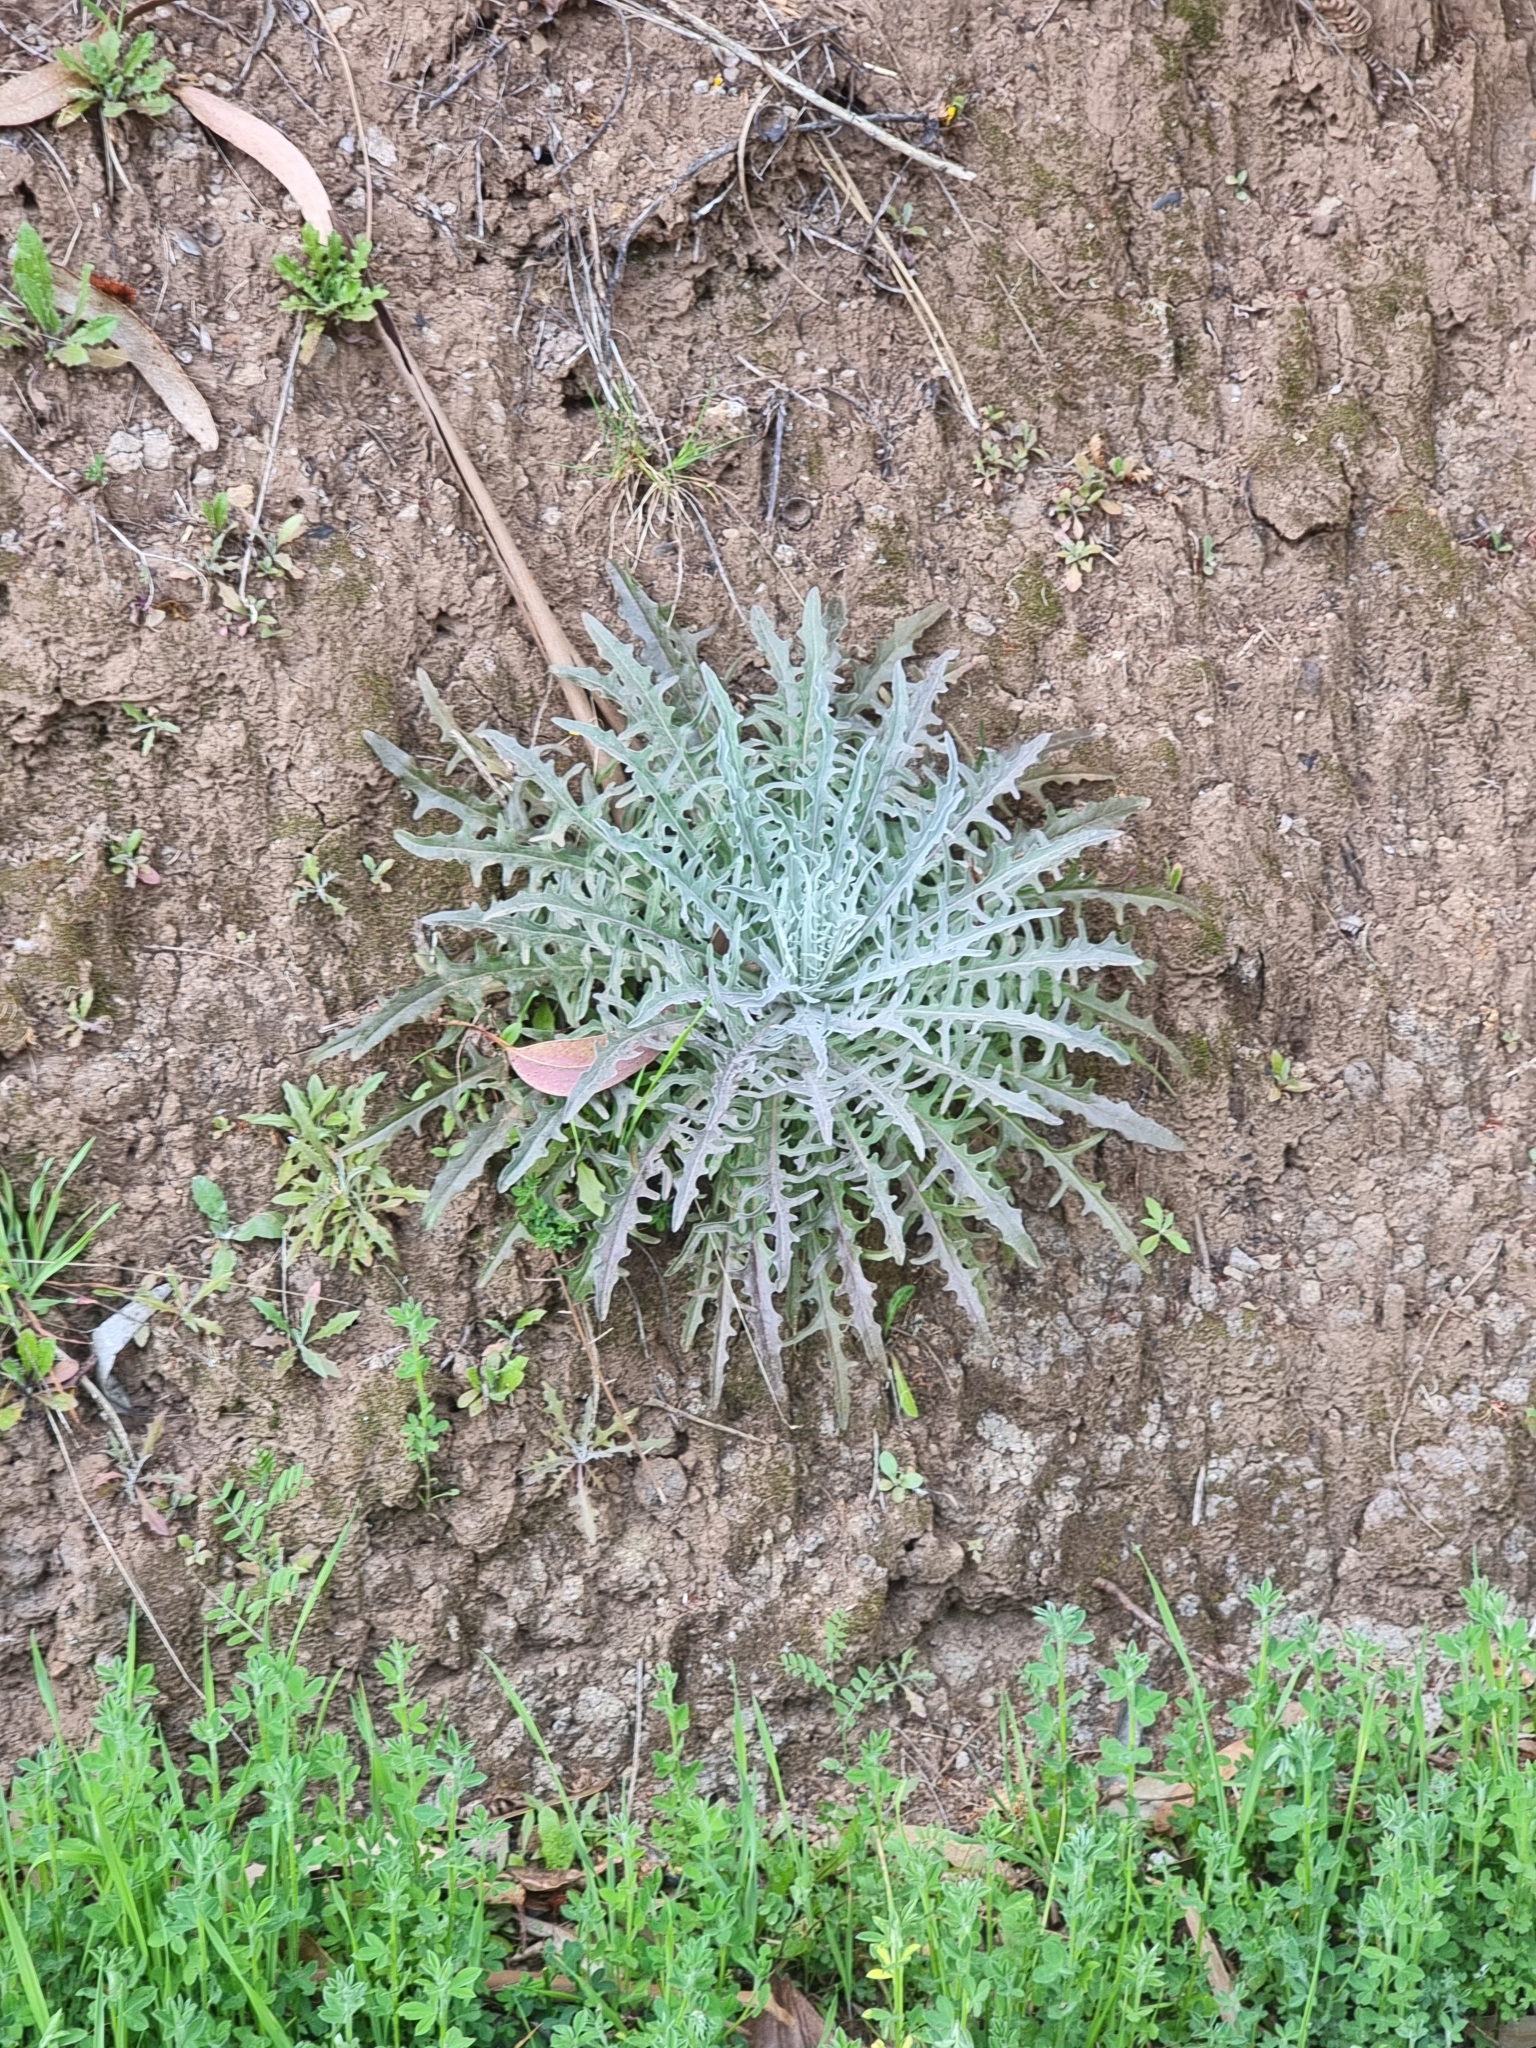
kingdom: Plantae
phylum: Tracheophyta
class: Magnoliopsida
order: Asterales
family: Asteraceae
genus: Andryala
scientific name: Andryala glandulosa
